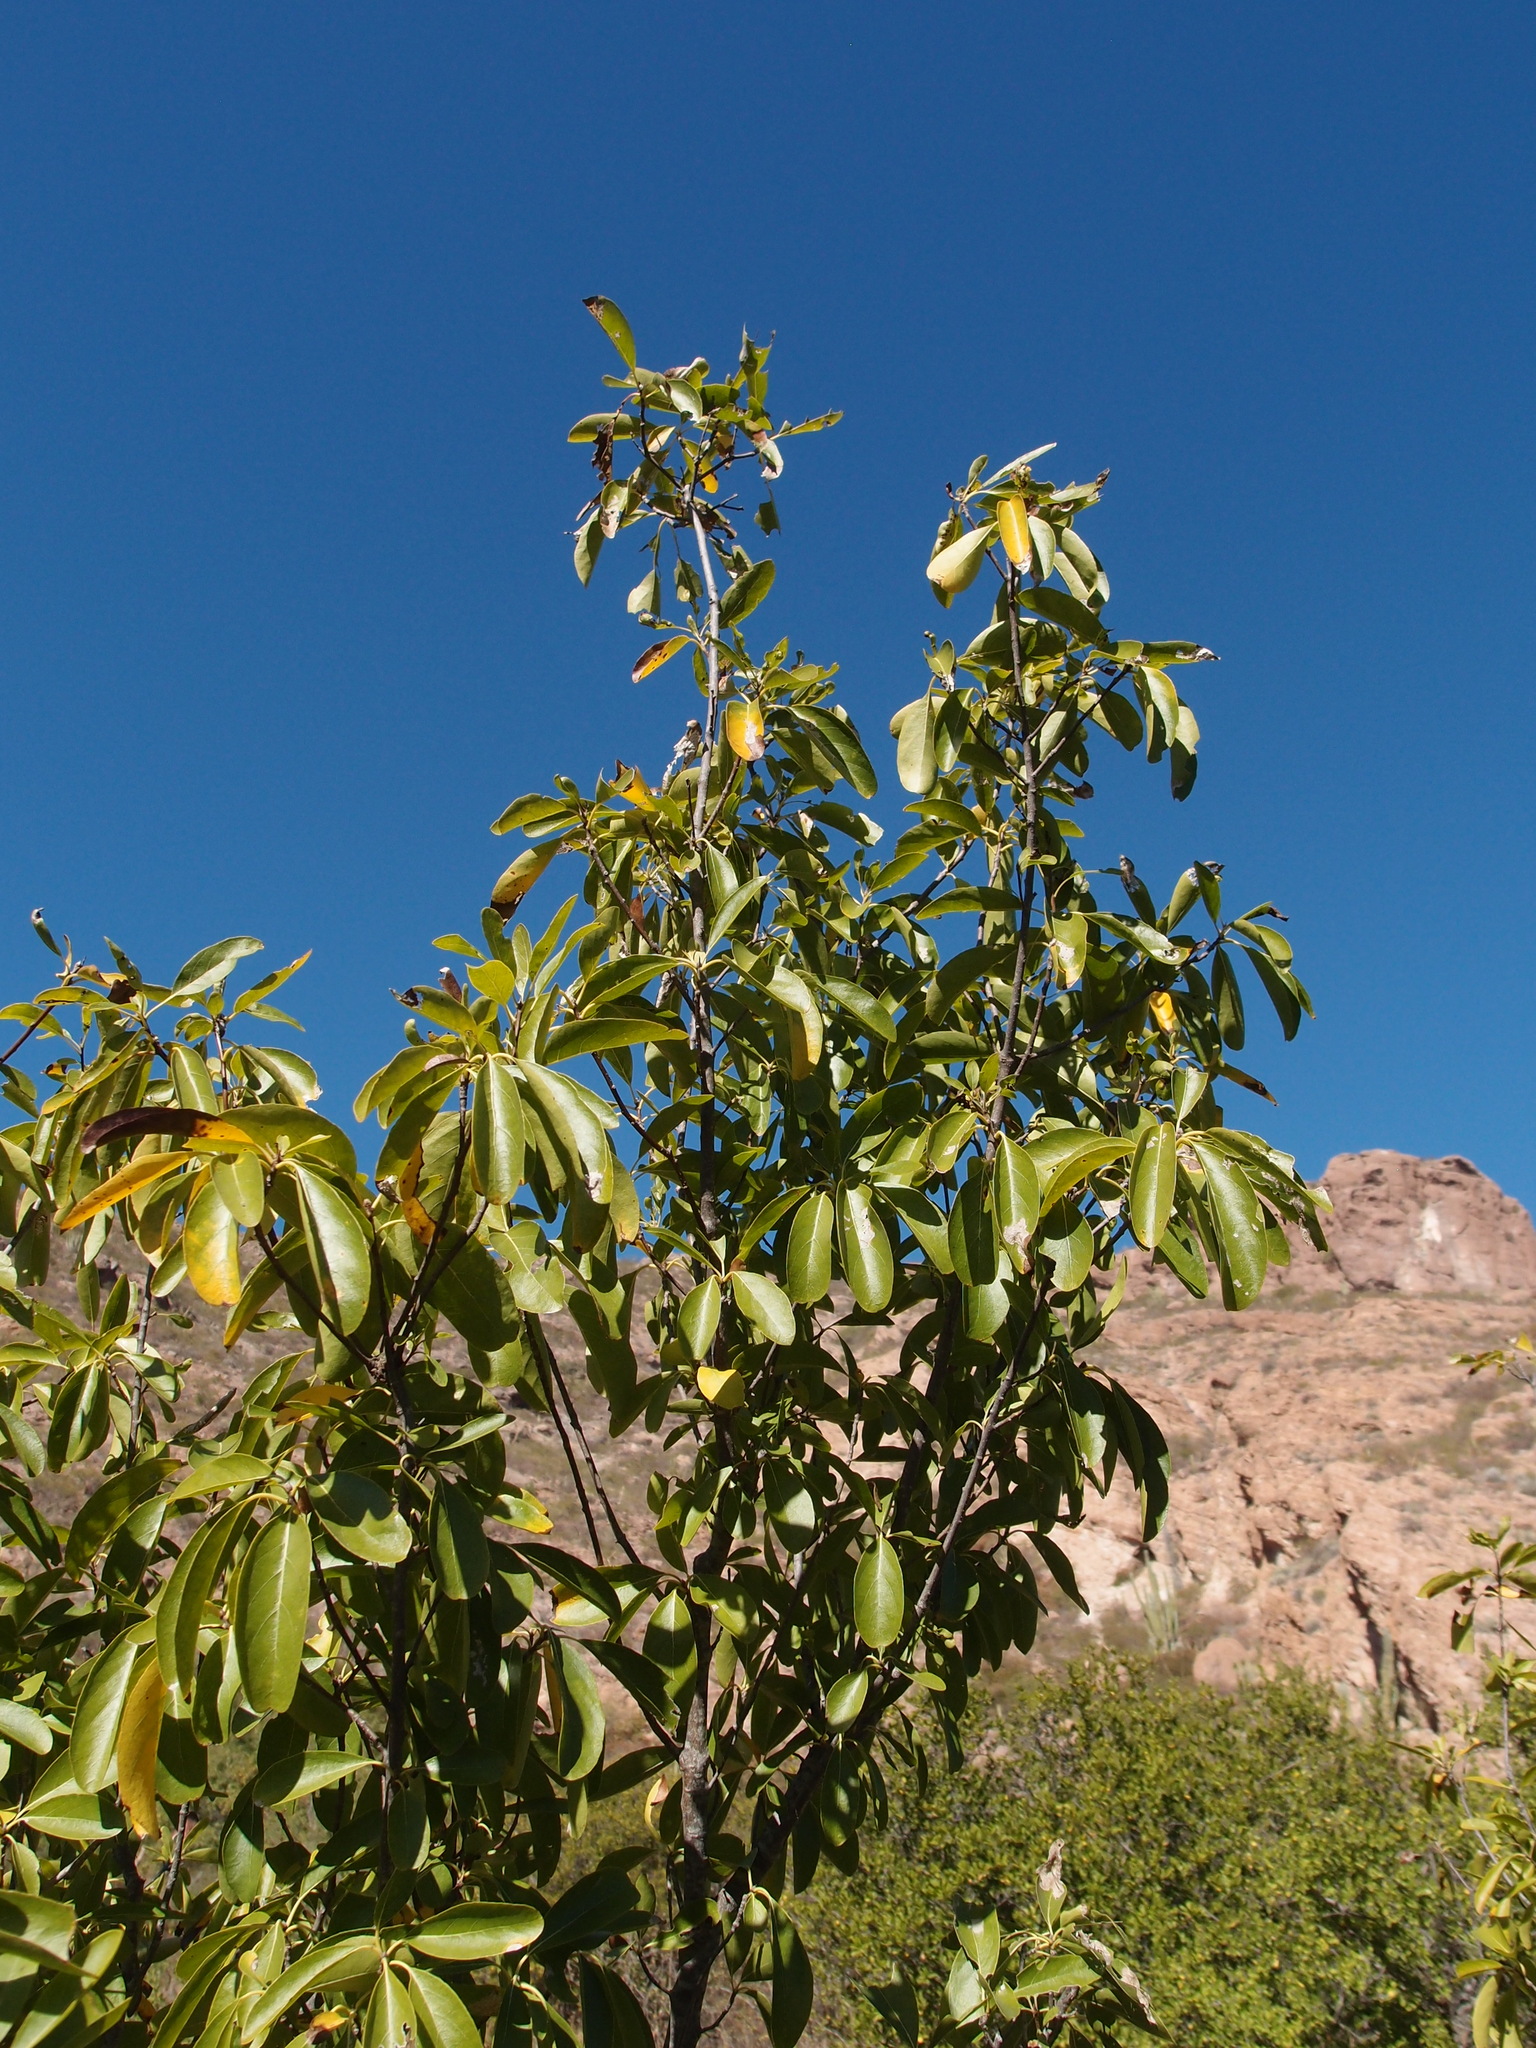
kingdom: Plantae
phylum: Tracheophyta
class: Magnoliopsida
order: Boraginales
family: Cordiaceae
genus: Cordia
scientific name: Cordia sonorae
